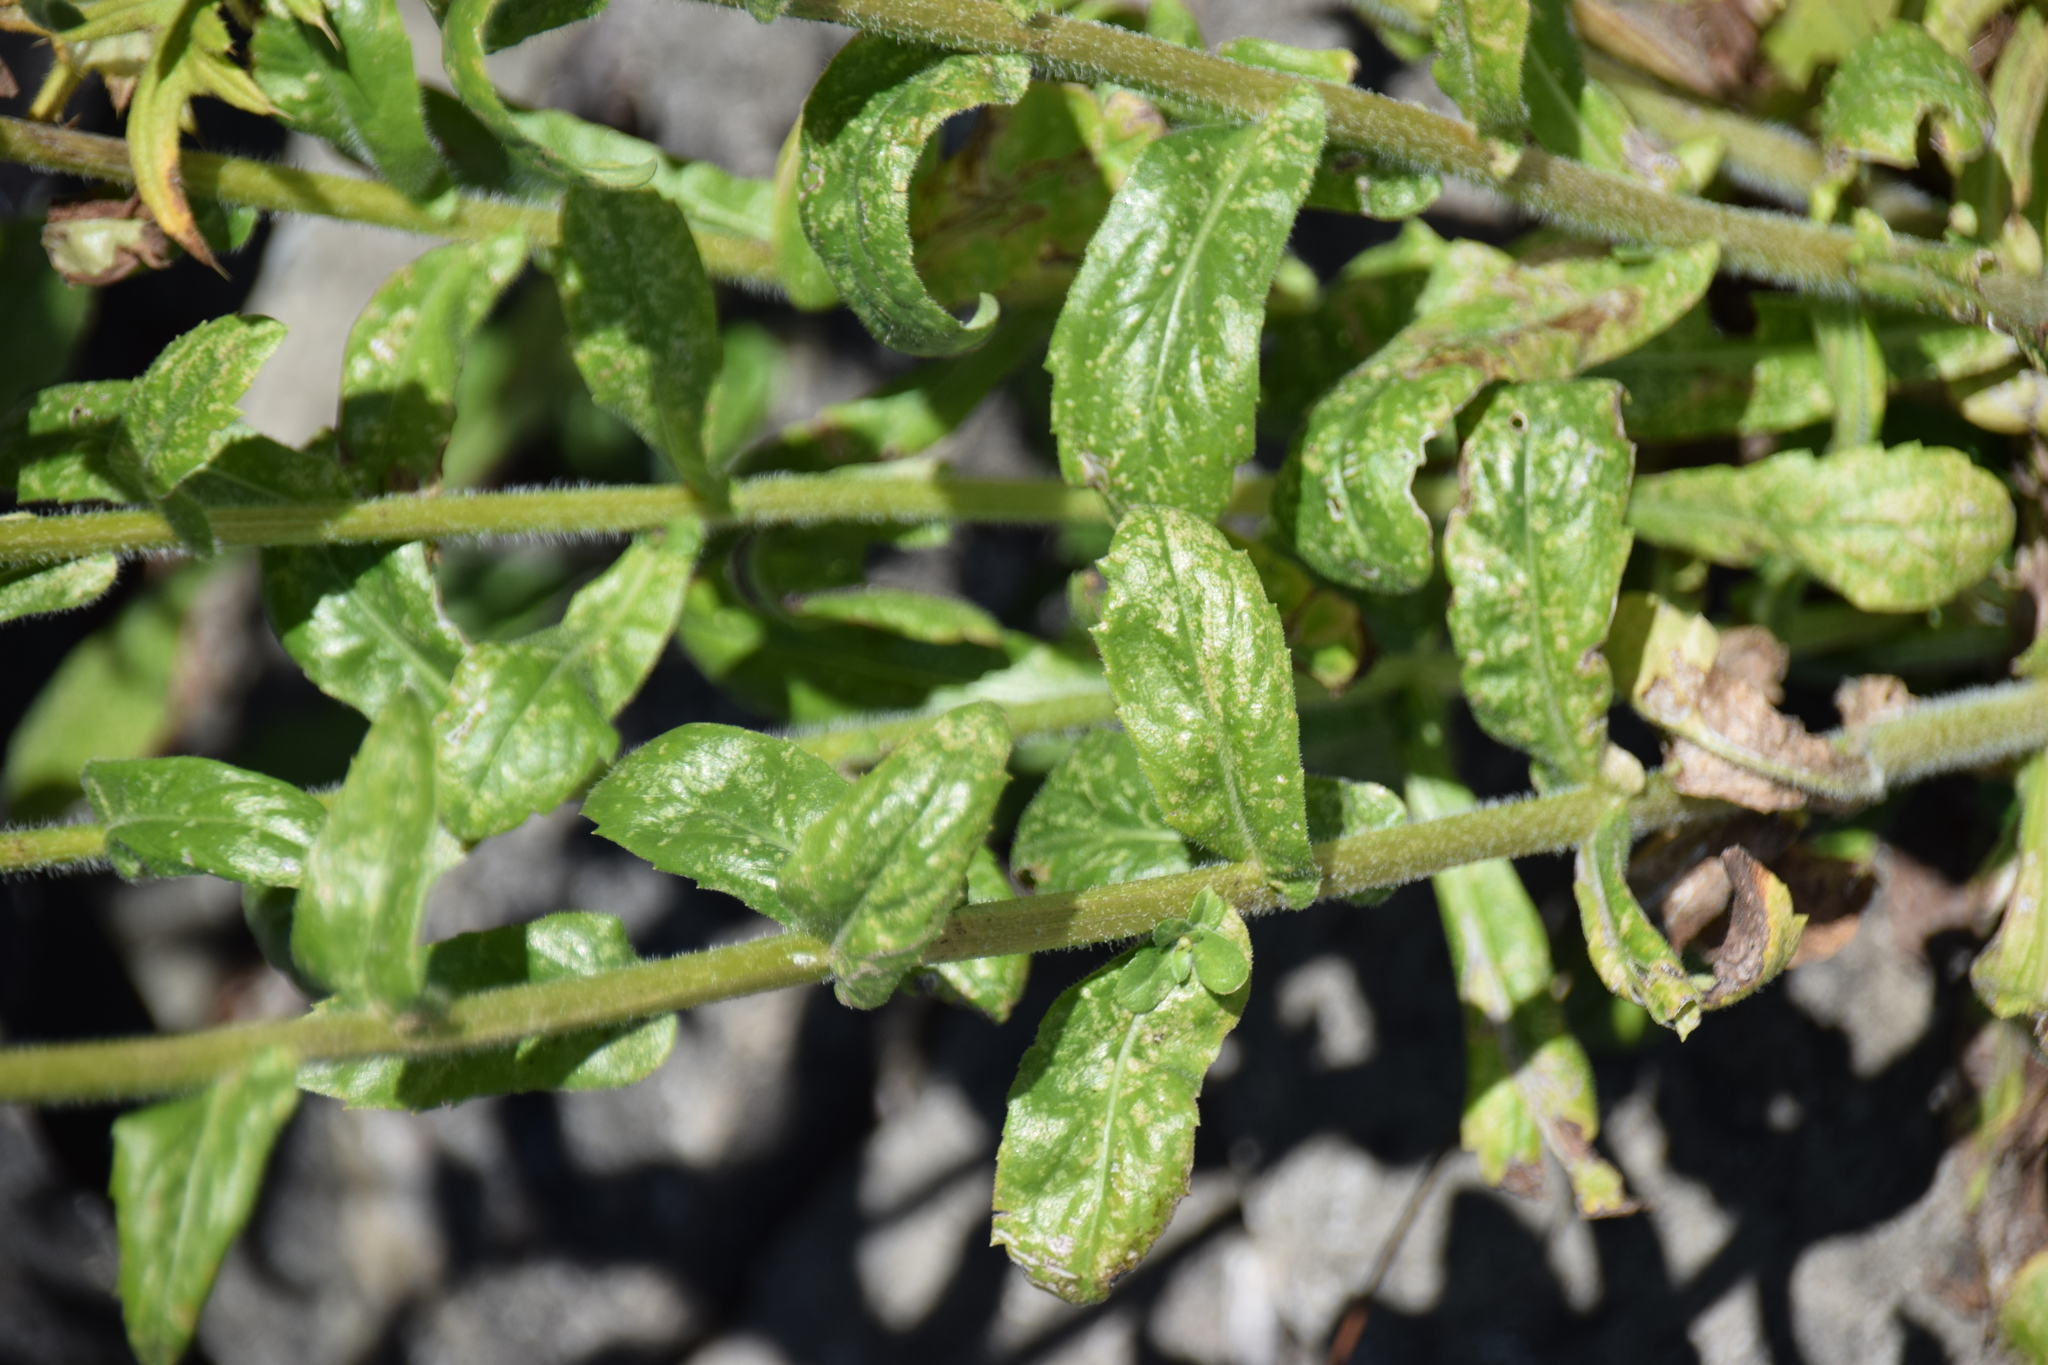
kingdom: Plantae
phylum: Tracheophyta
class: Magnoliopsida
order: Asterales
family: Asteraceae
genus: Erigeron
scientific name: Erigeron philadelphicus
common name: Robin's-plantain
